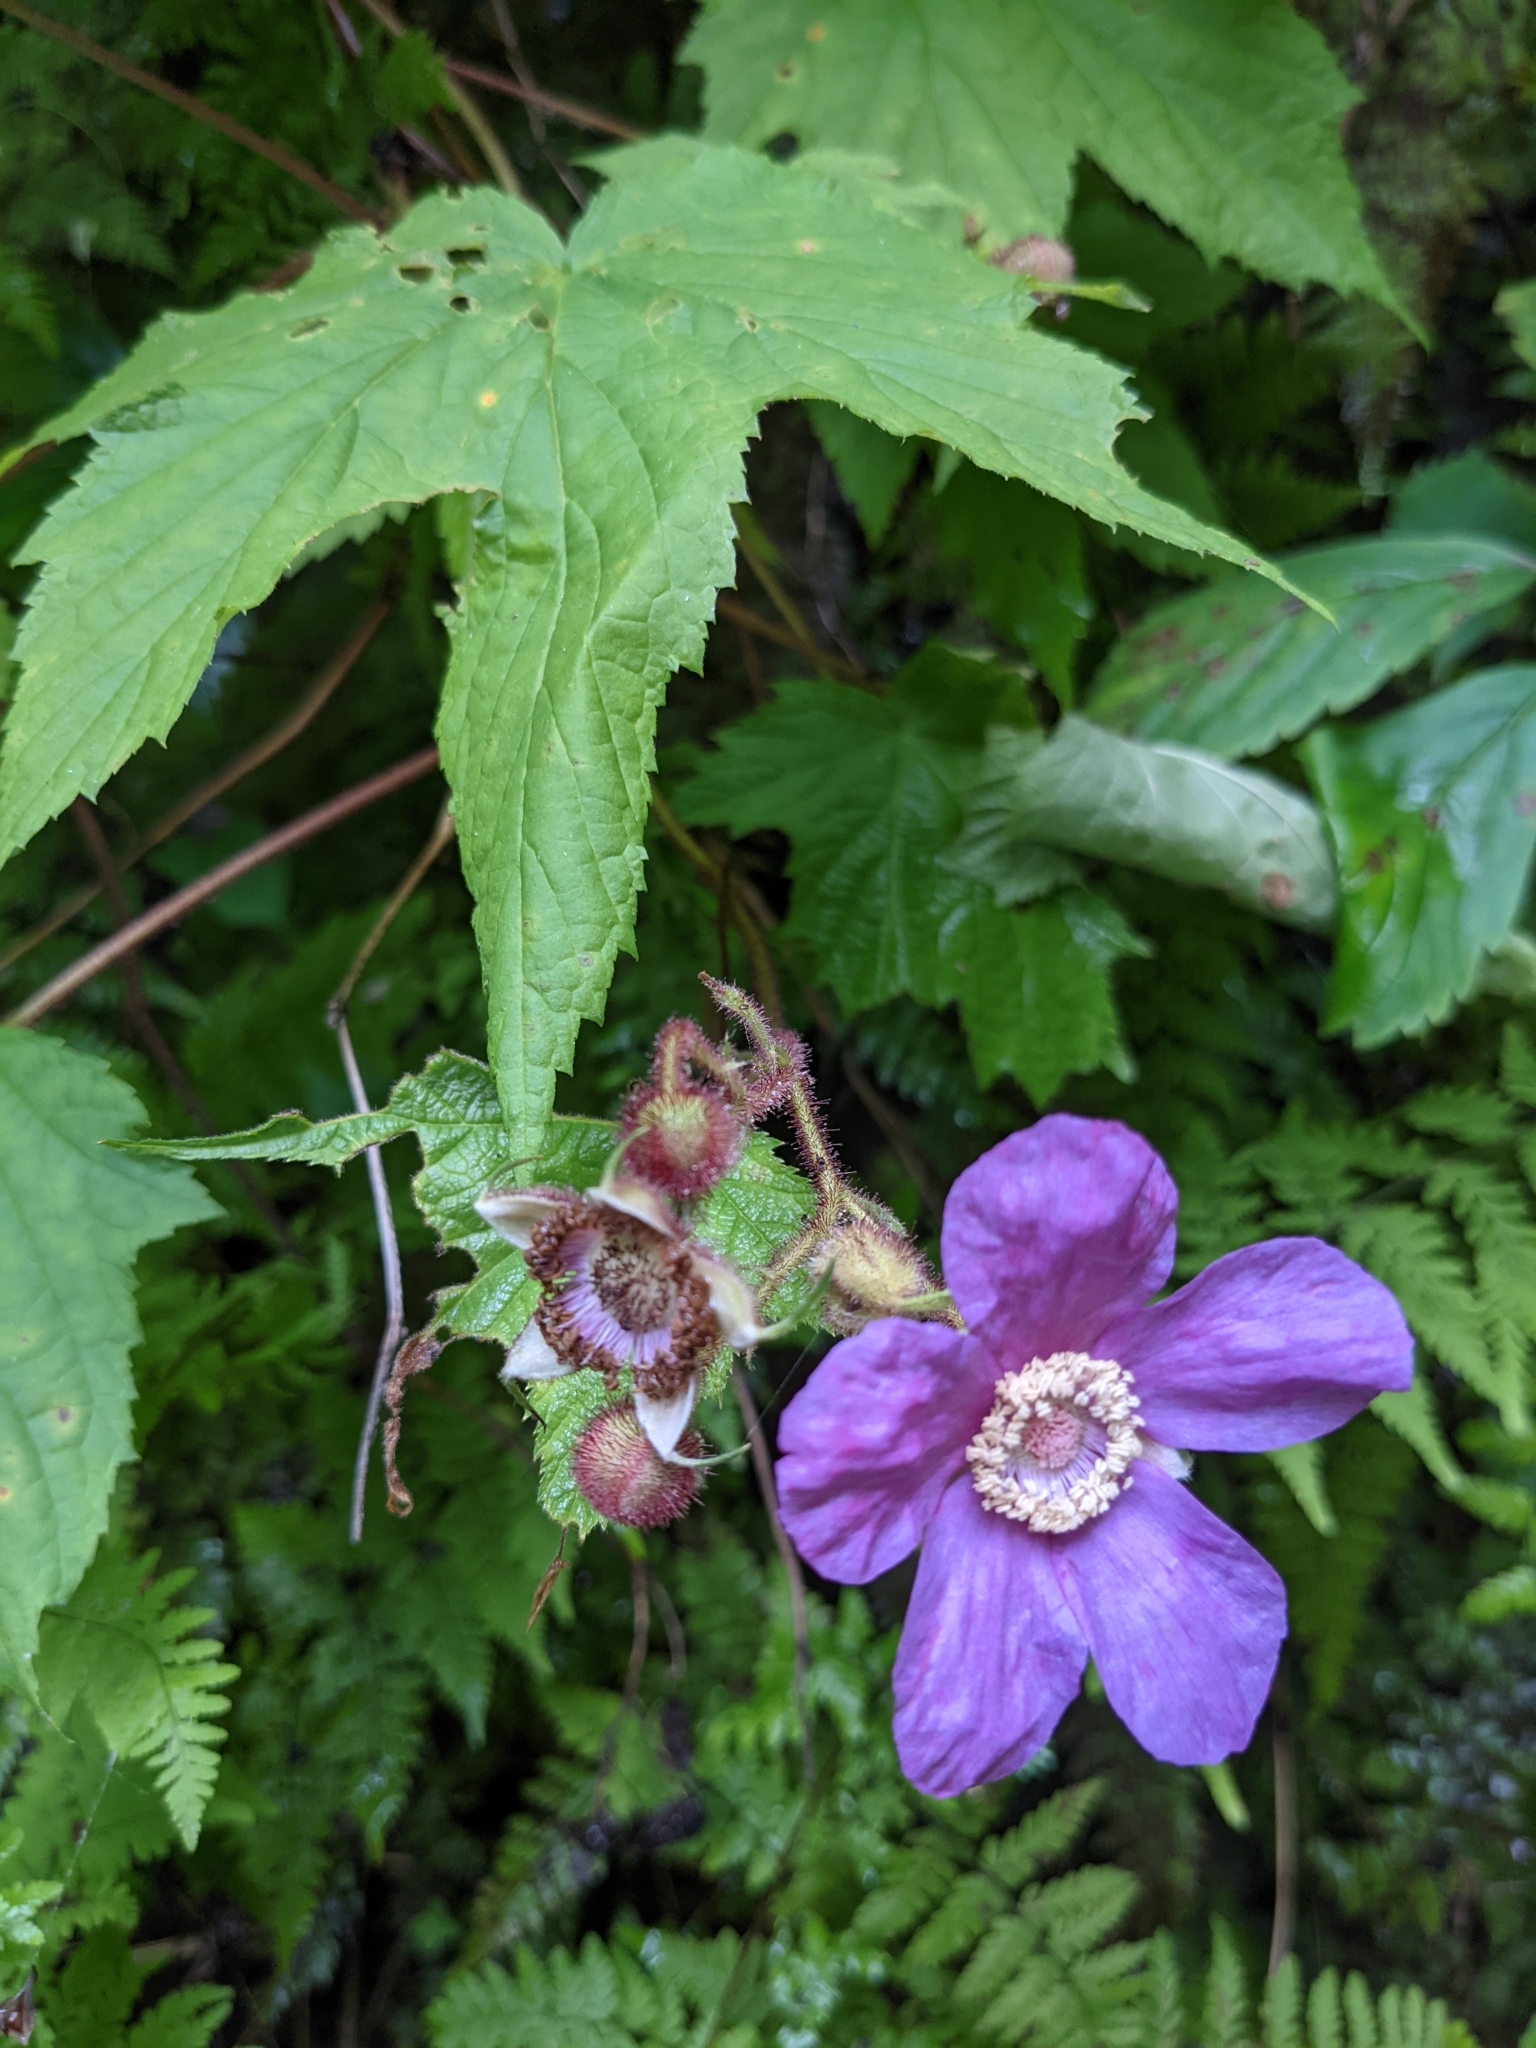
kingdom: Plantae
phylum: Tracheophyta
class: Magnoliopsida
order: Rosales
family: Rosaceae
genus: Rubus
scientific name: Rubus odoratus
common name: Purple-flowered raspberry
